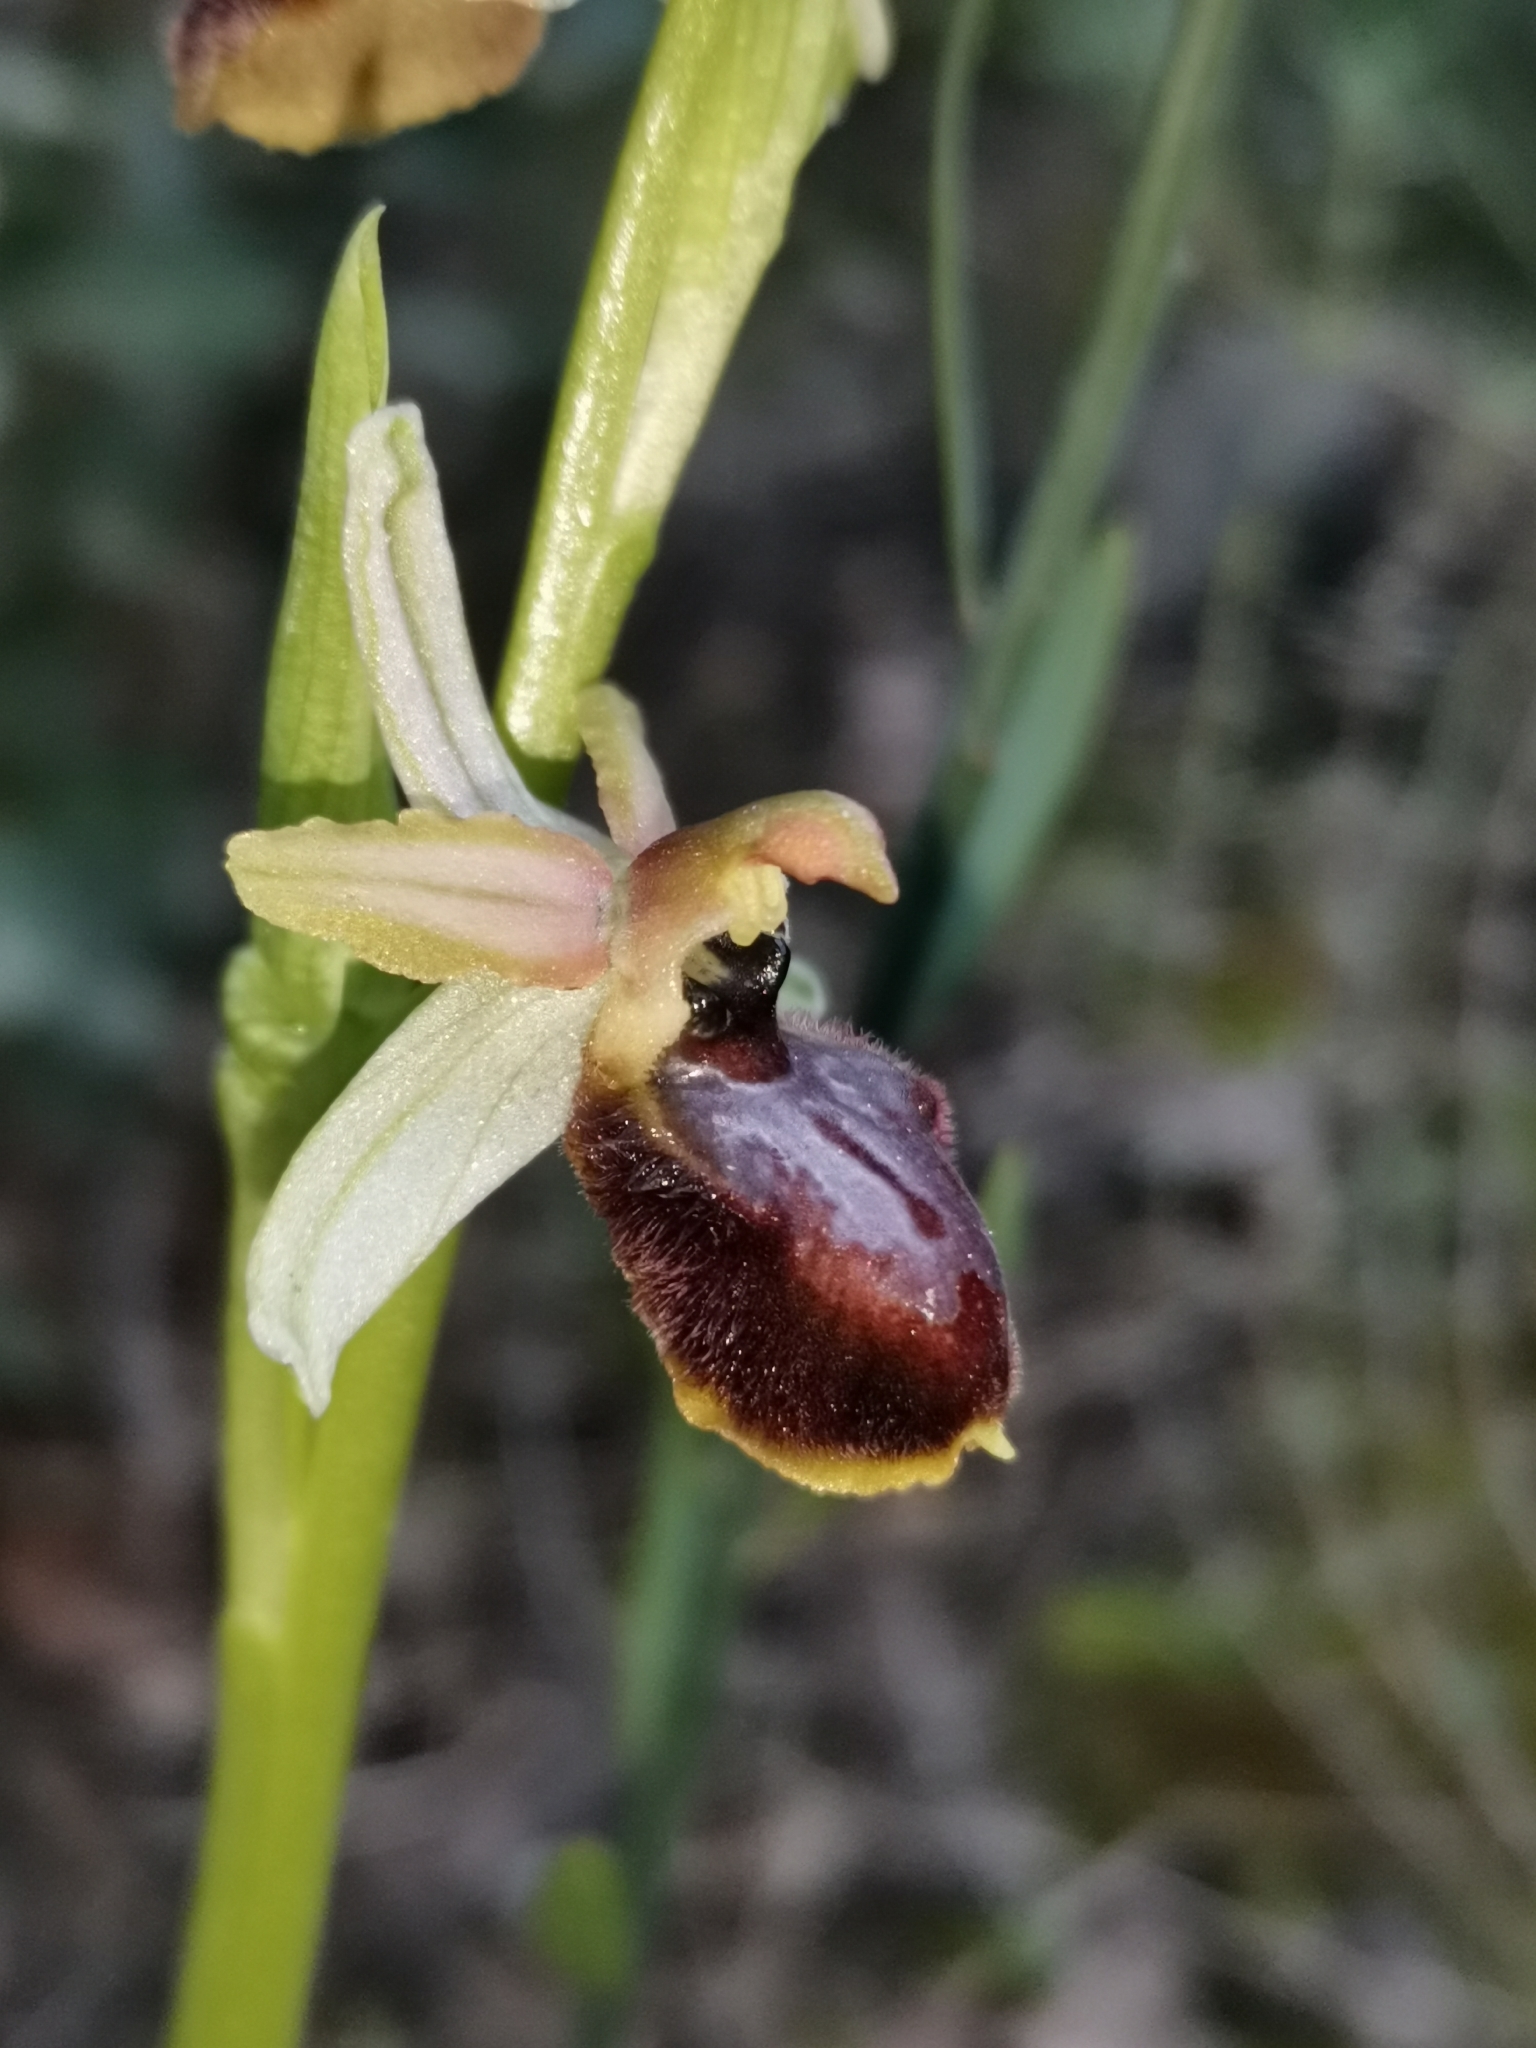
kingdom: Plantae
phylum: Tracheophyta
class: Liliopsida
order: Asparagales
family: Orchidaceae
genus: Ophrys
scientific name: Ophrys arachnitiformis
